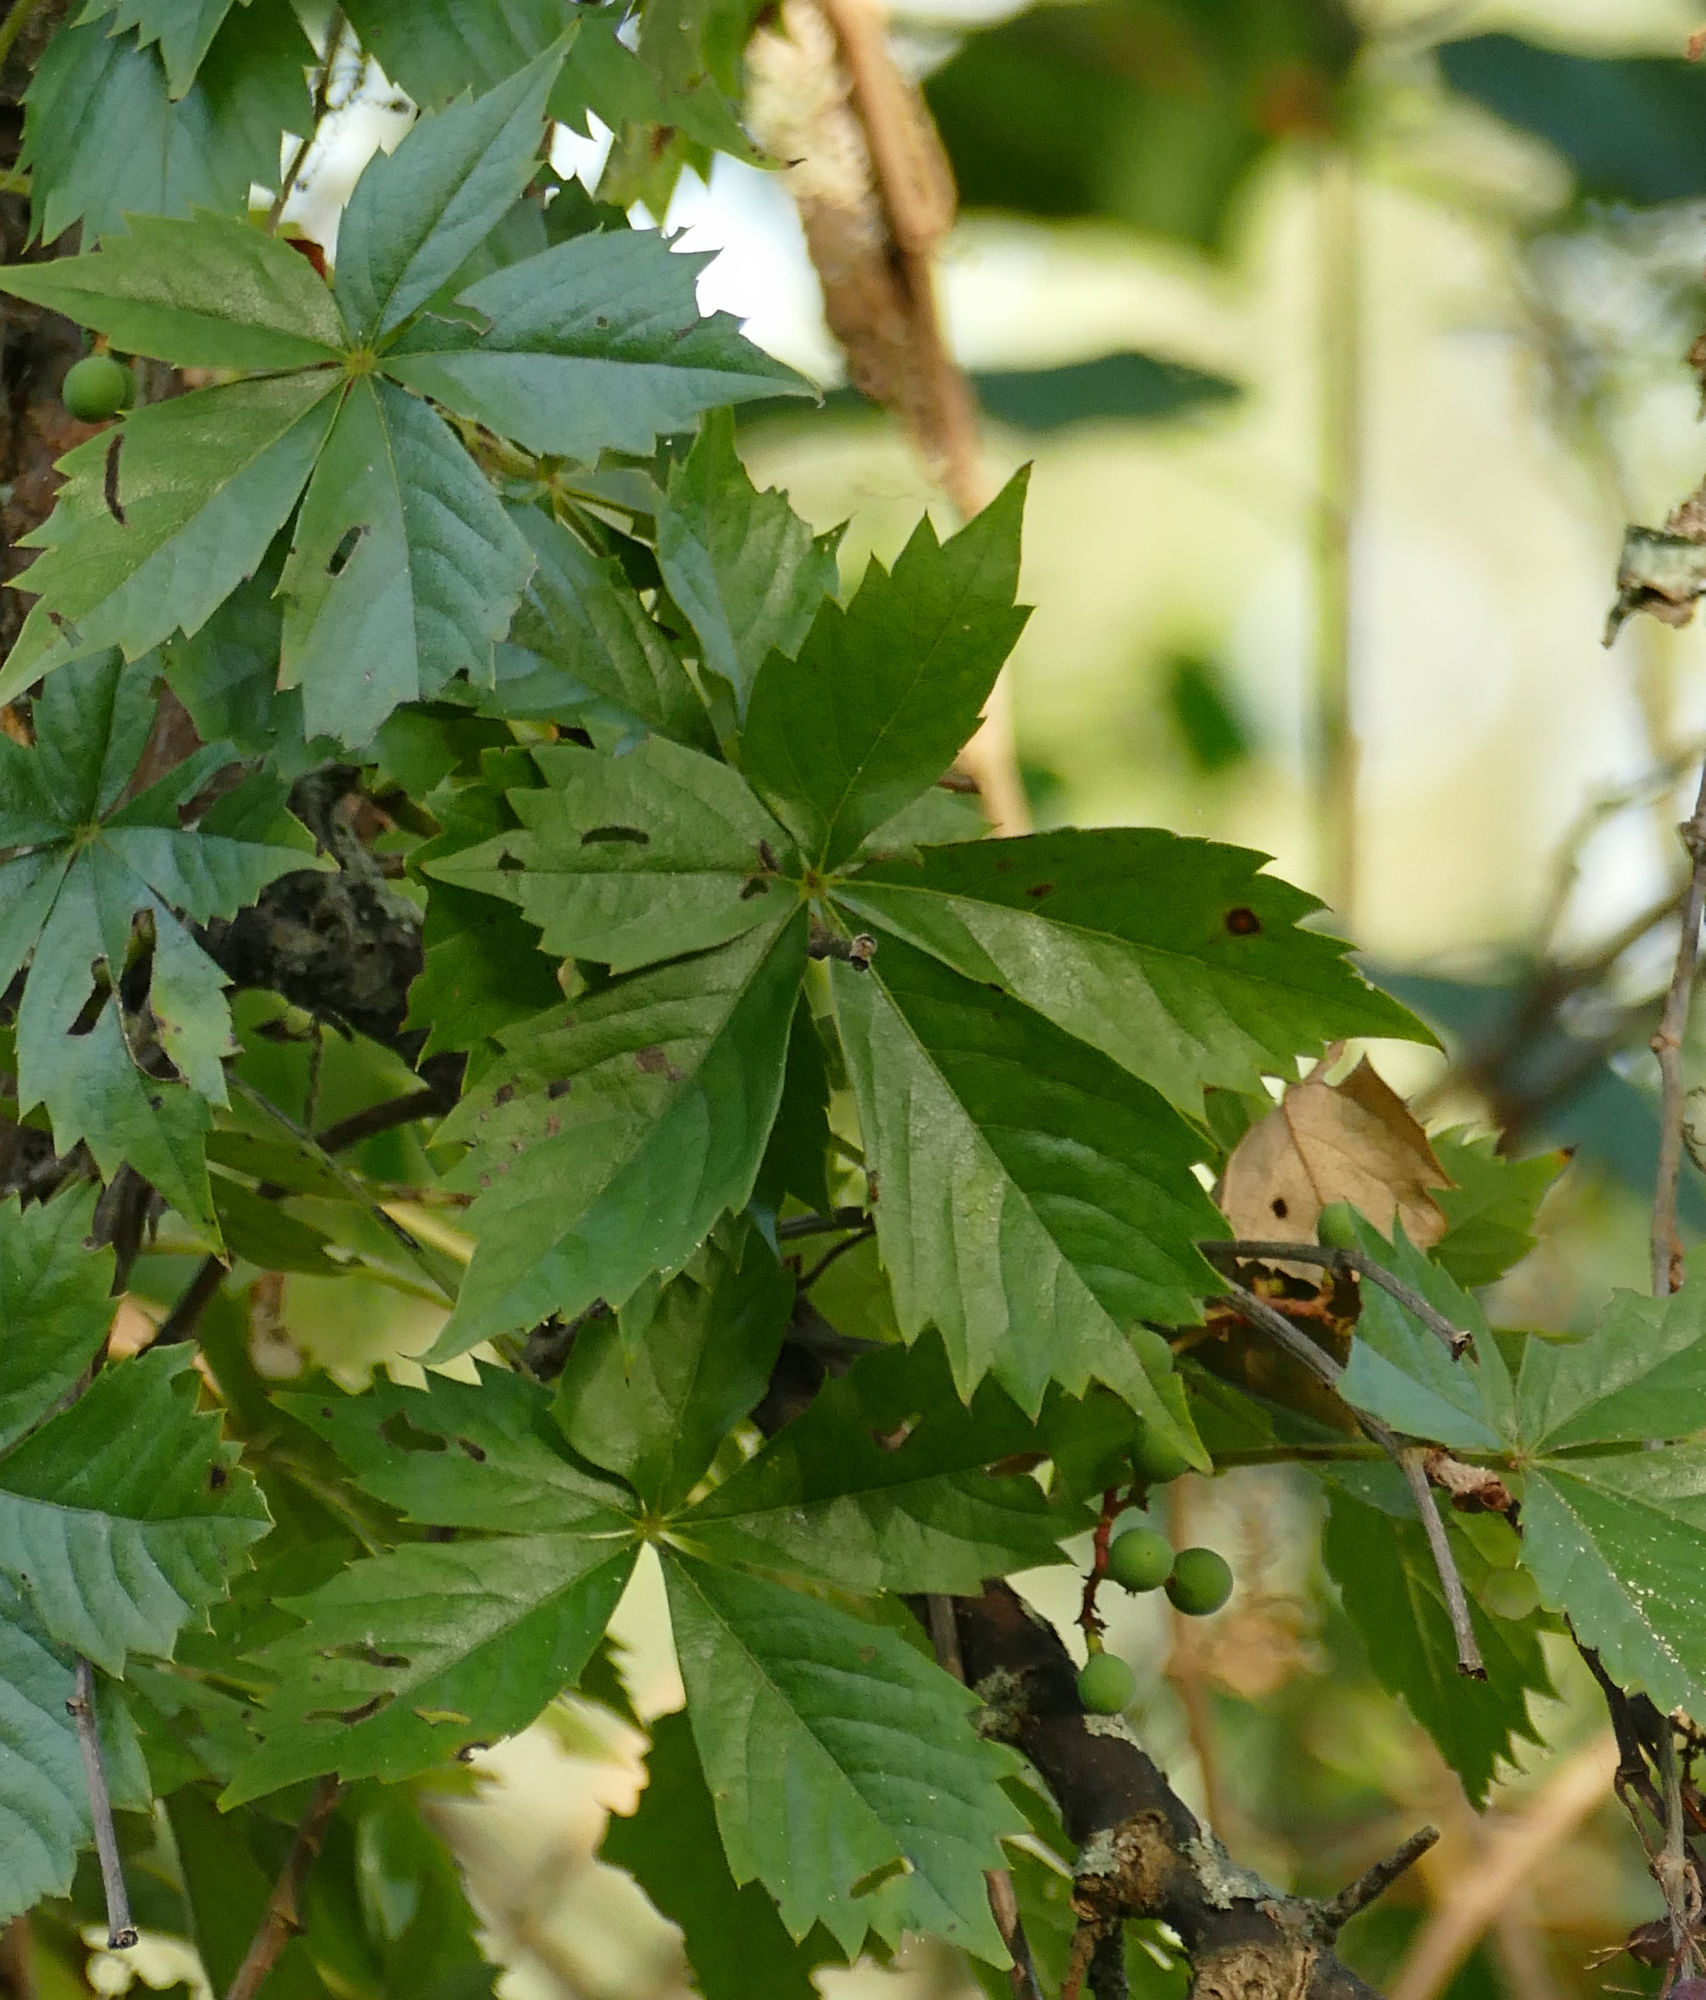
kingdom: Plantae
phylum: Tracheophyta
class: Magnoliopsida
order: Vitales
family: Vitaceae
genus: Parthenocissus
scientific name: Parthenocissus quinquefolia
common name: Virginia-creeper
